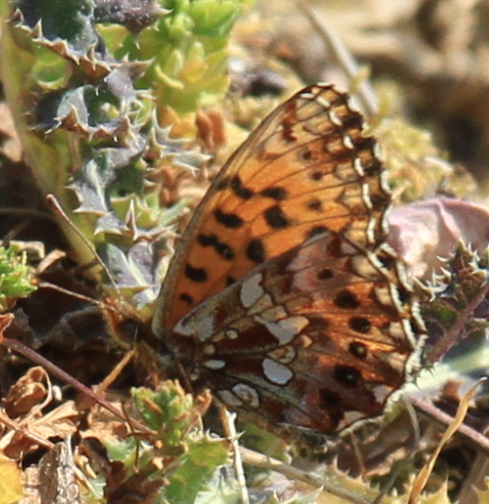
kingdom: Animalia
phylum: Arthropoda
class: Insecta
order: Lepidoptera
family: Nymphalidae
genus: Boloria
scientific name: Boloria dia
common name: Weaver's fritillary
